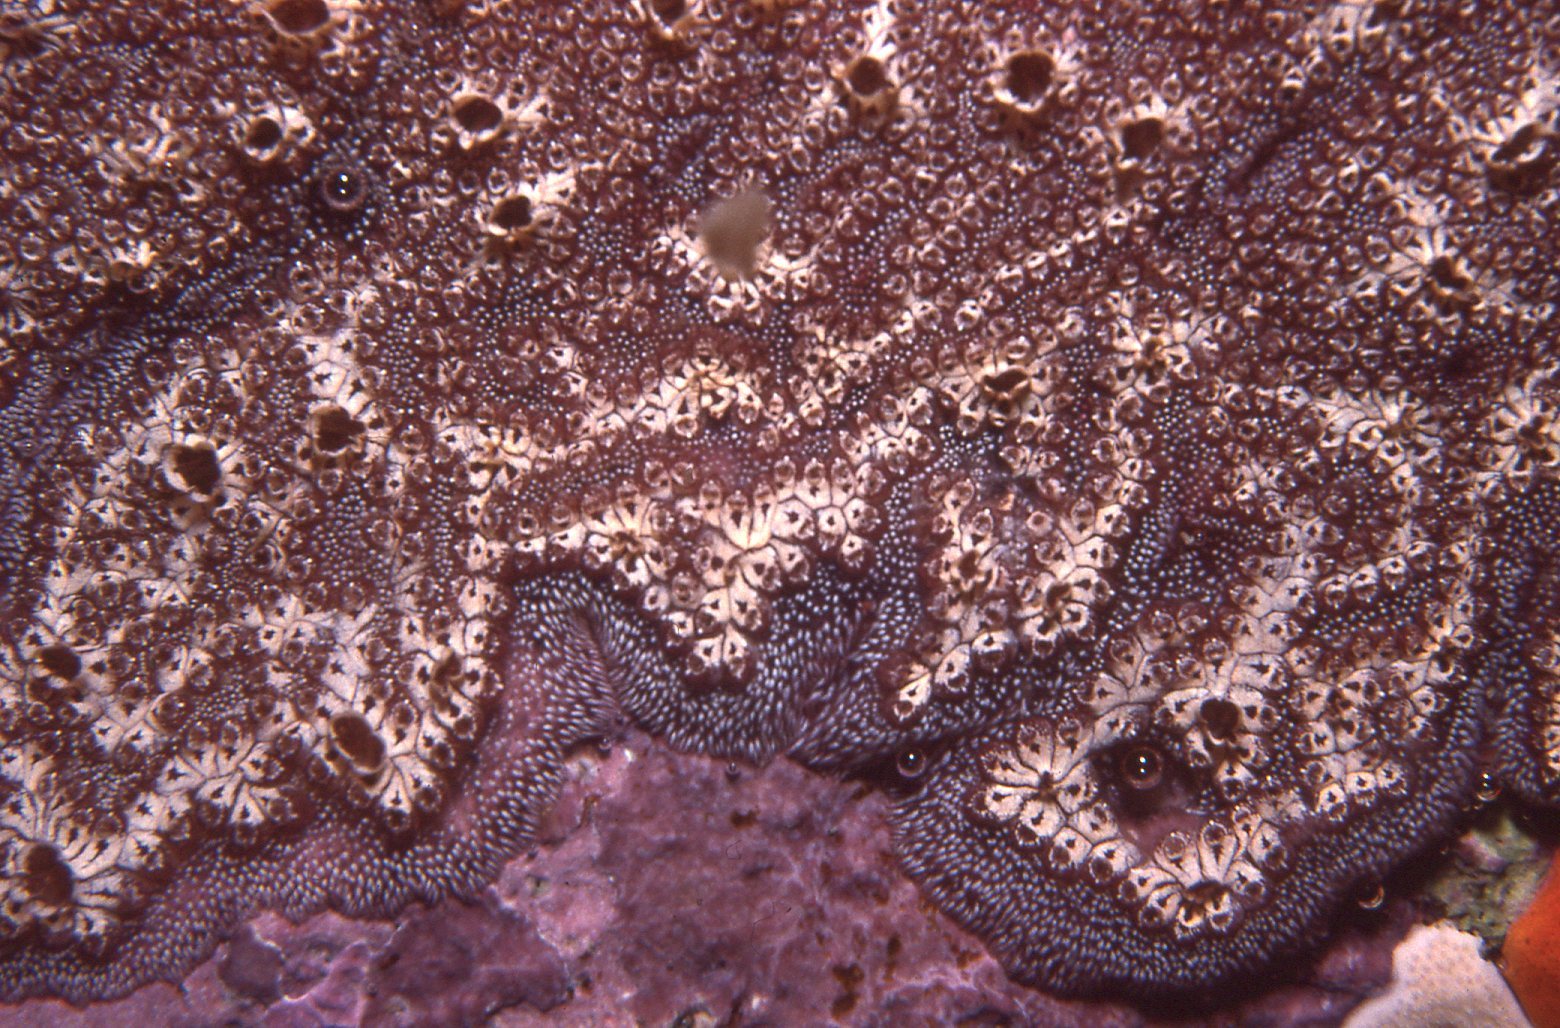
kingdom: Animalia
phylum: Chordata
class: Ascidiacea
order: Stolidobranchia
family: Styelidae
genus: Botrylloides
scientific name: Botrylloides leachii
